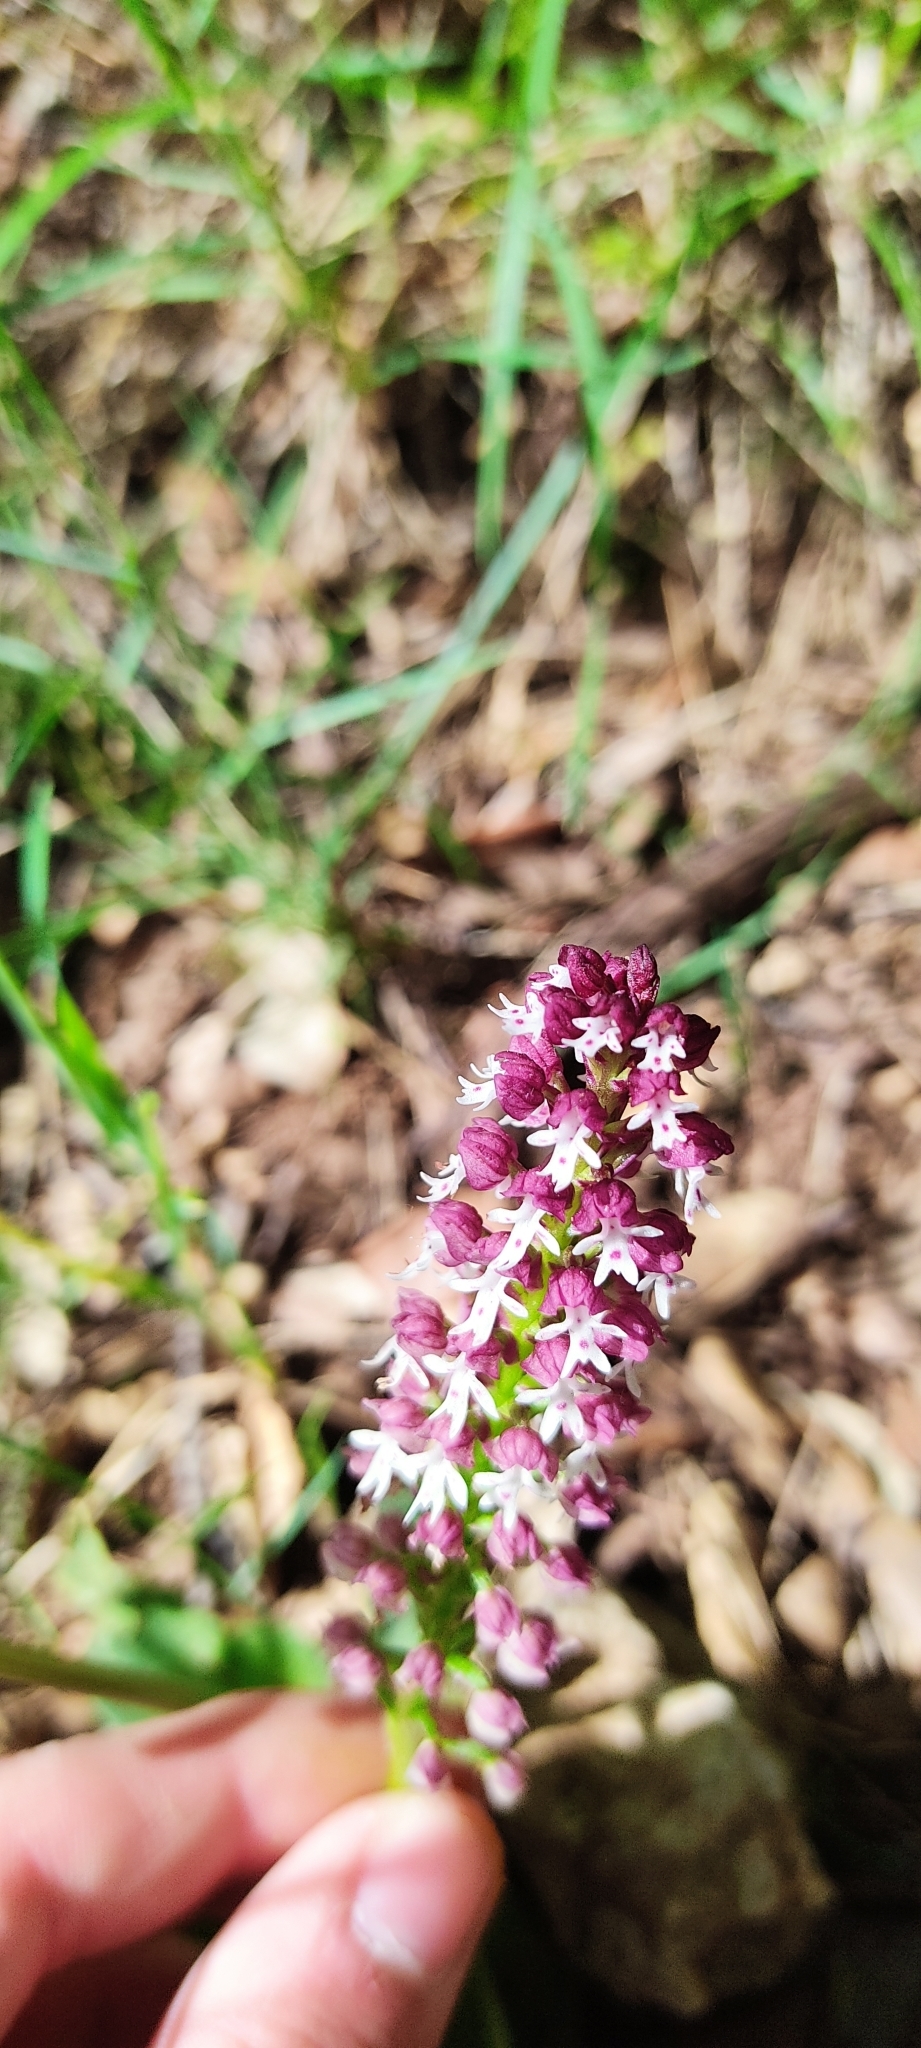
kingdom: Plantae
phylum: Tracheophyta
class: Liliopsida
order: Asparagales
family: Orchidaceae
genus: Neotinea
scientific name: Neotinea ustulata
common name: Burnt orchid
